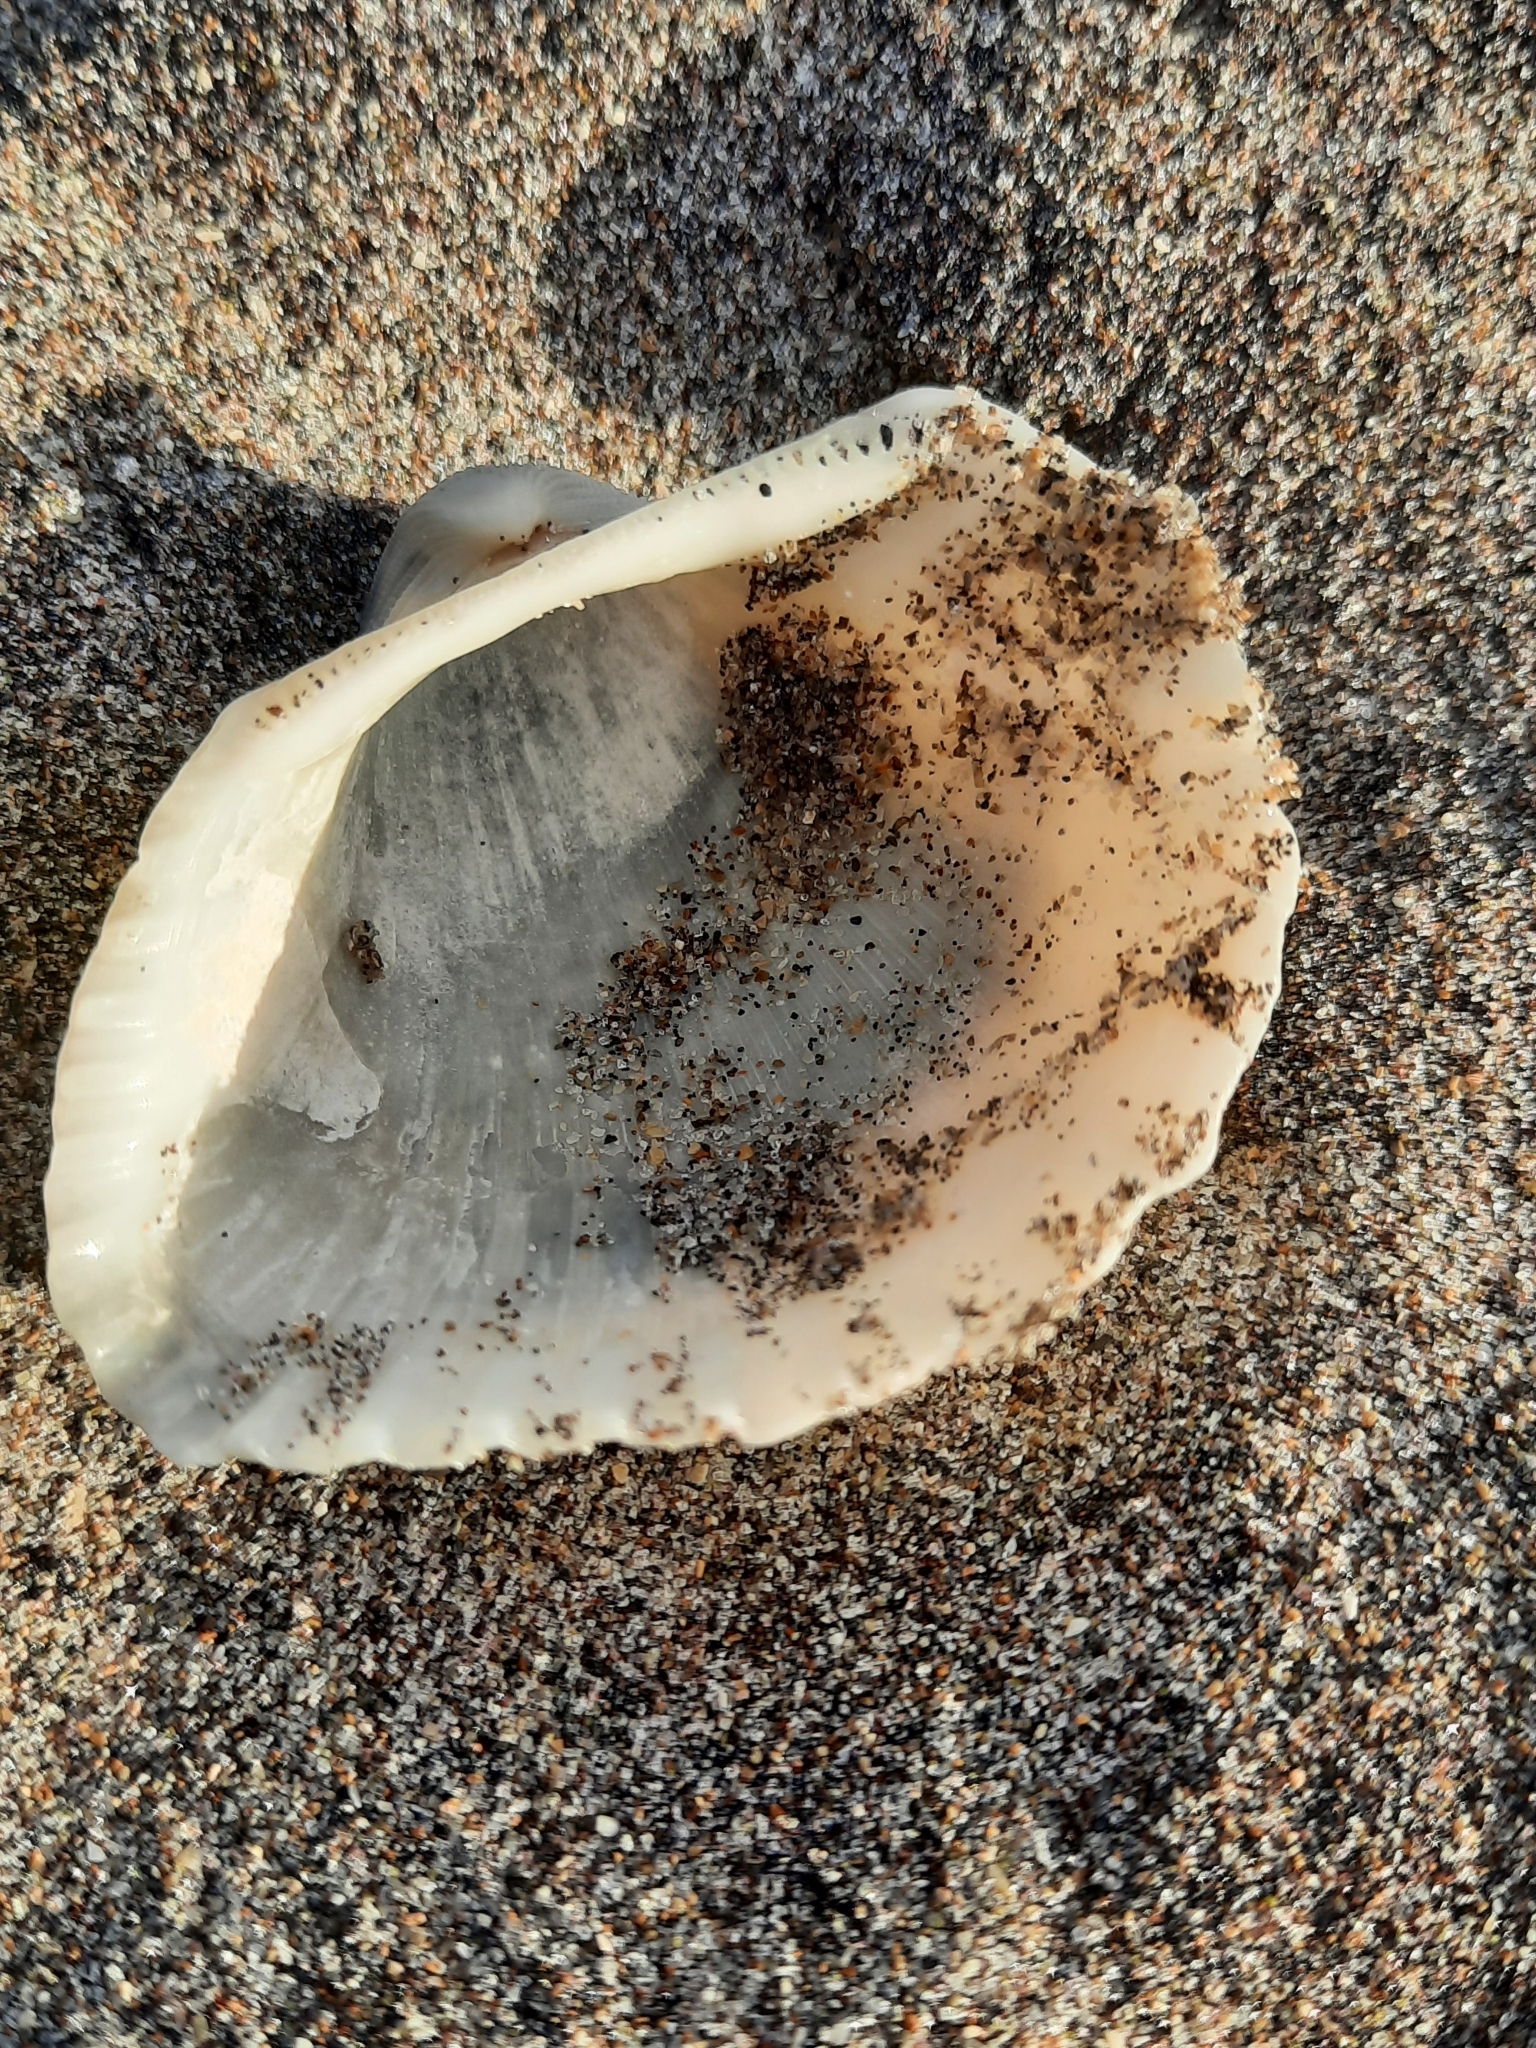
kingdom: Animalia
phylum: Mollusca
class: Bivalvia
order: Arcida
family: Arcidae
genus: Anadara
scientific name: Anadara brasiliana
